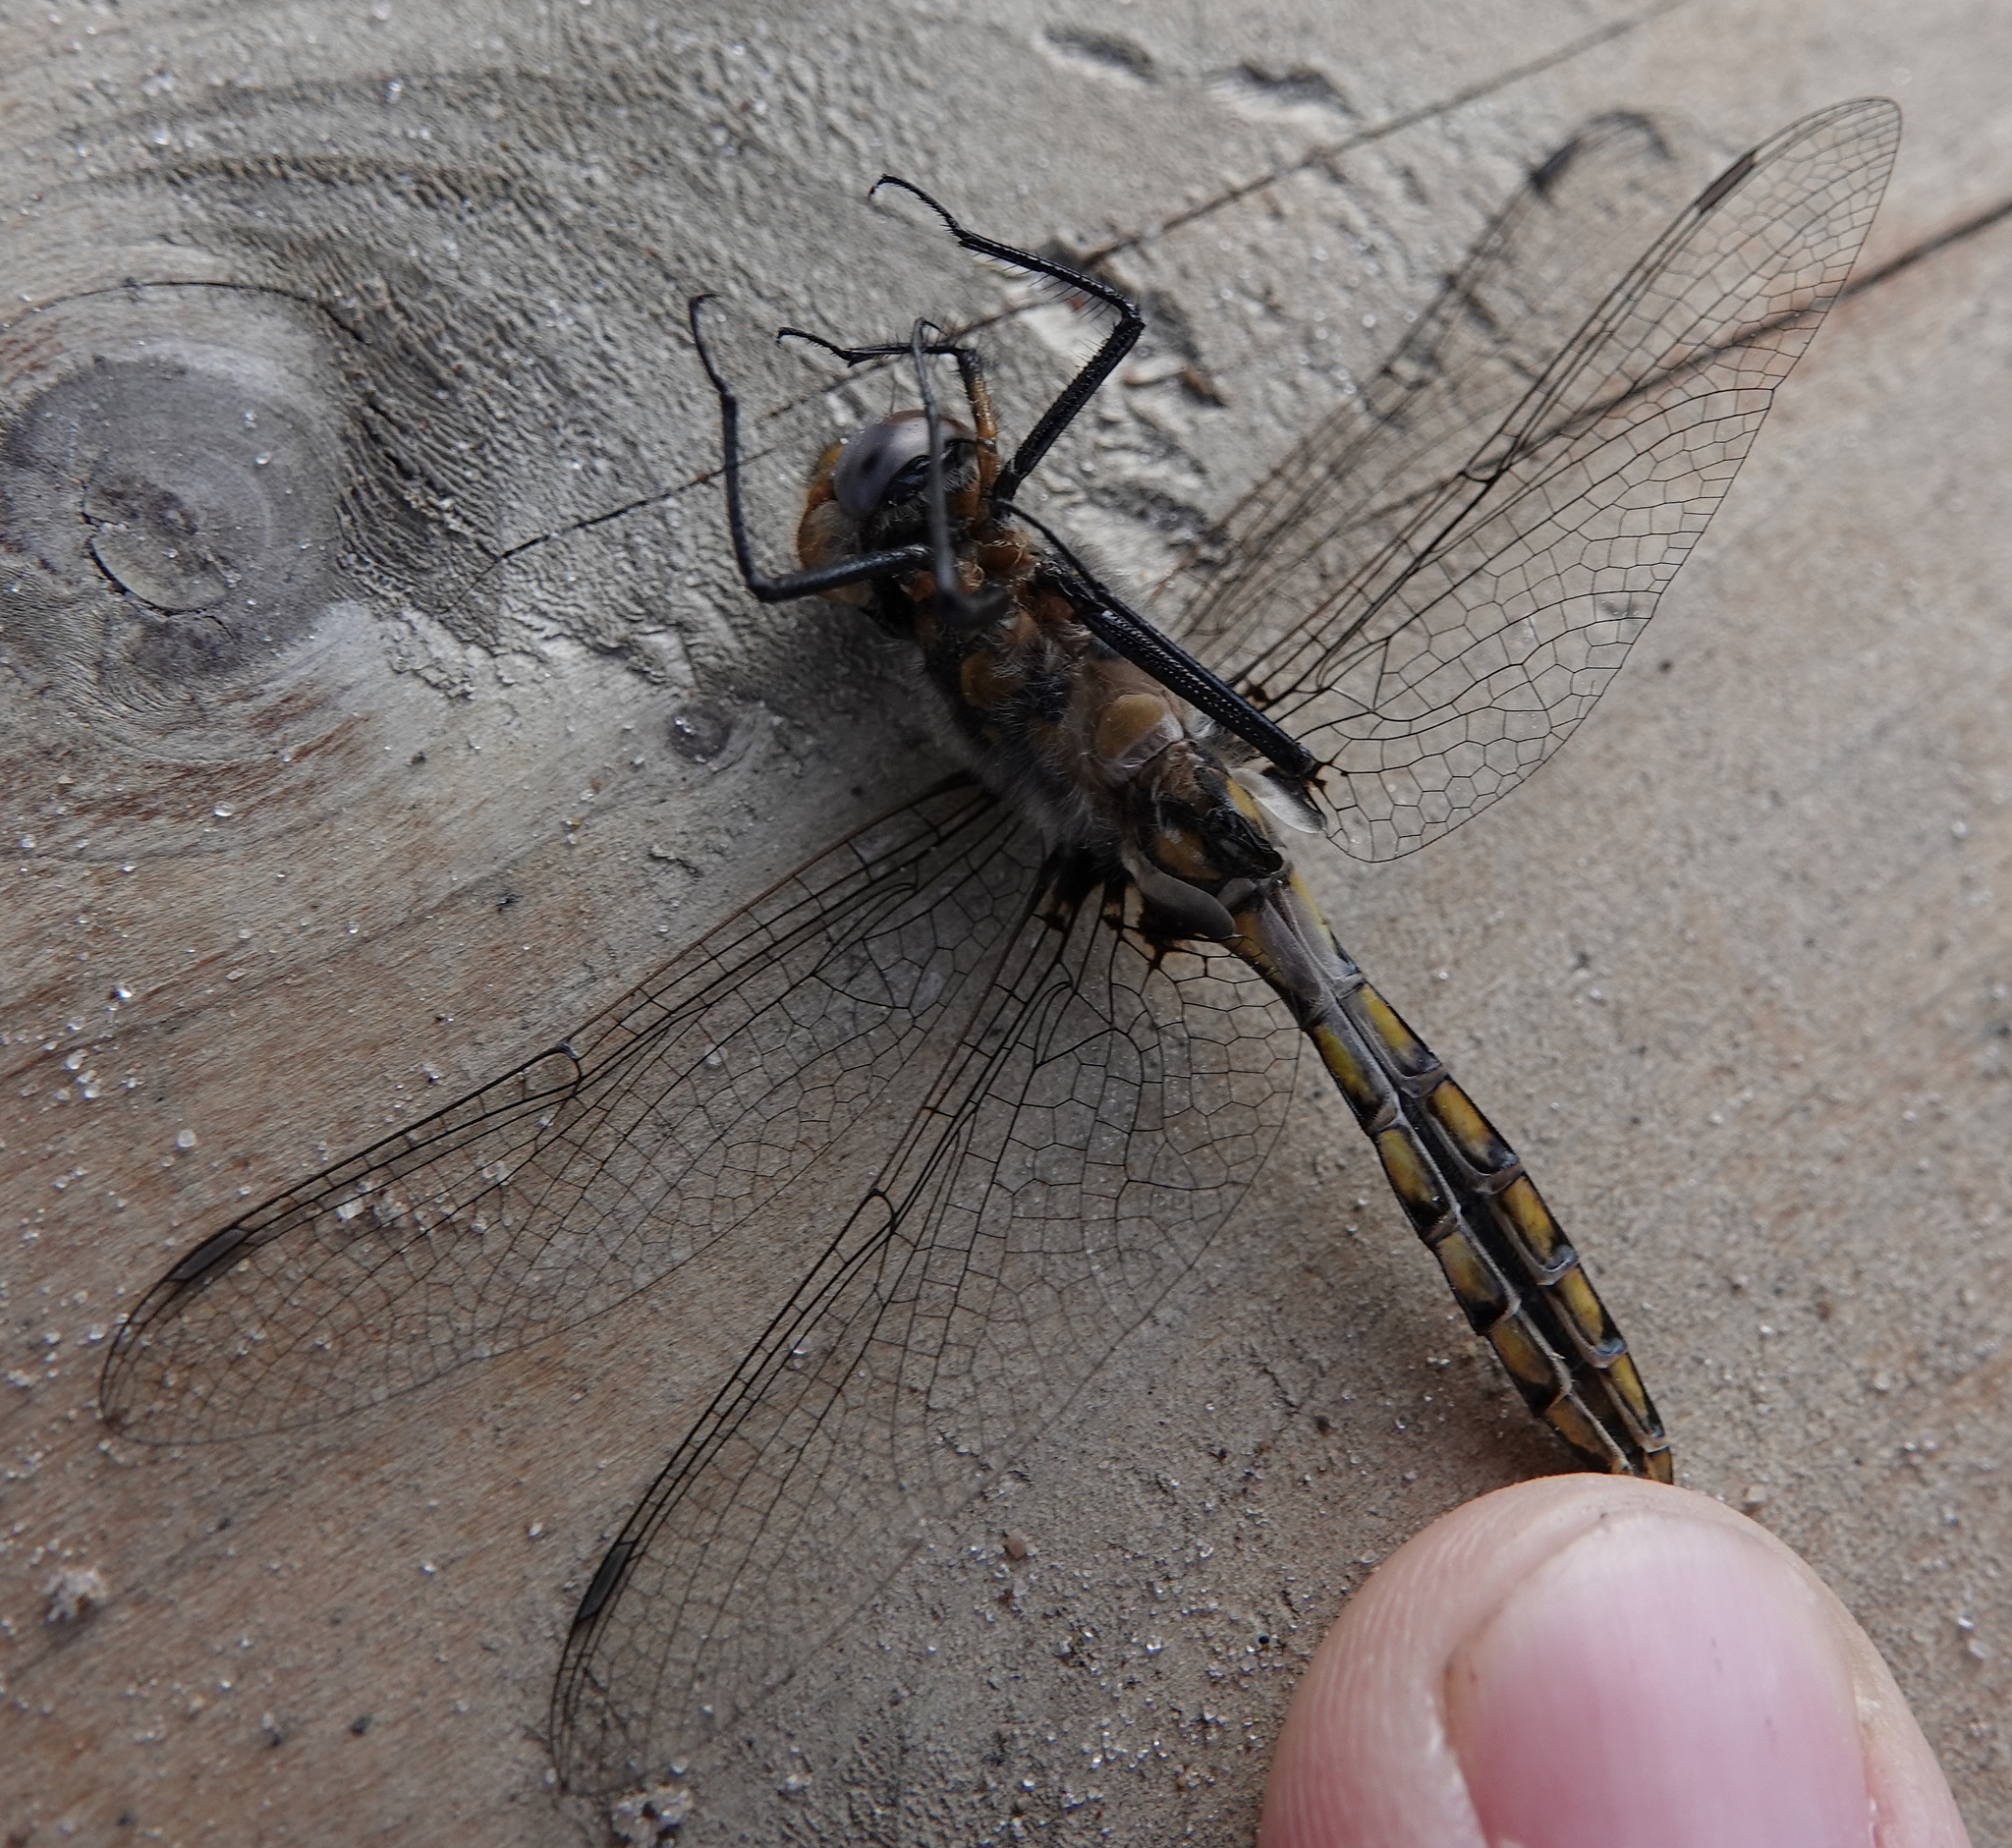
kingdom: Animalia
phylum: Arthropoda
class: Insecta
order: Odonata
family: Corduliidae
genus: Epitheca
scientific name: Epitheca cynosura
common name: Common baskettail
